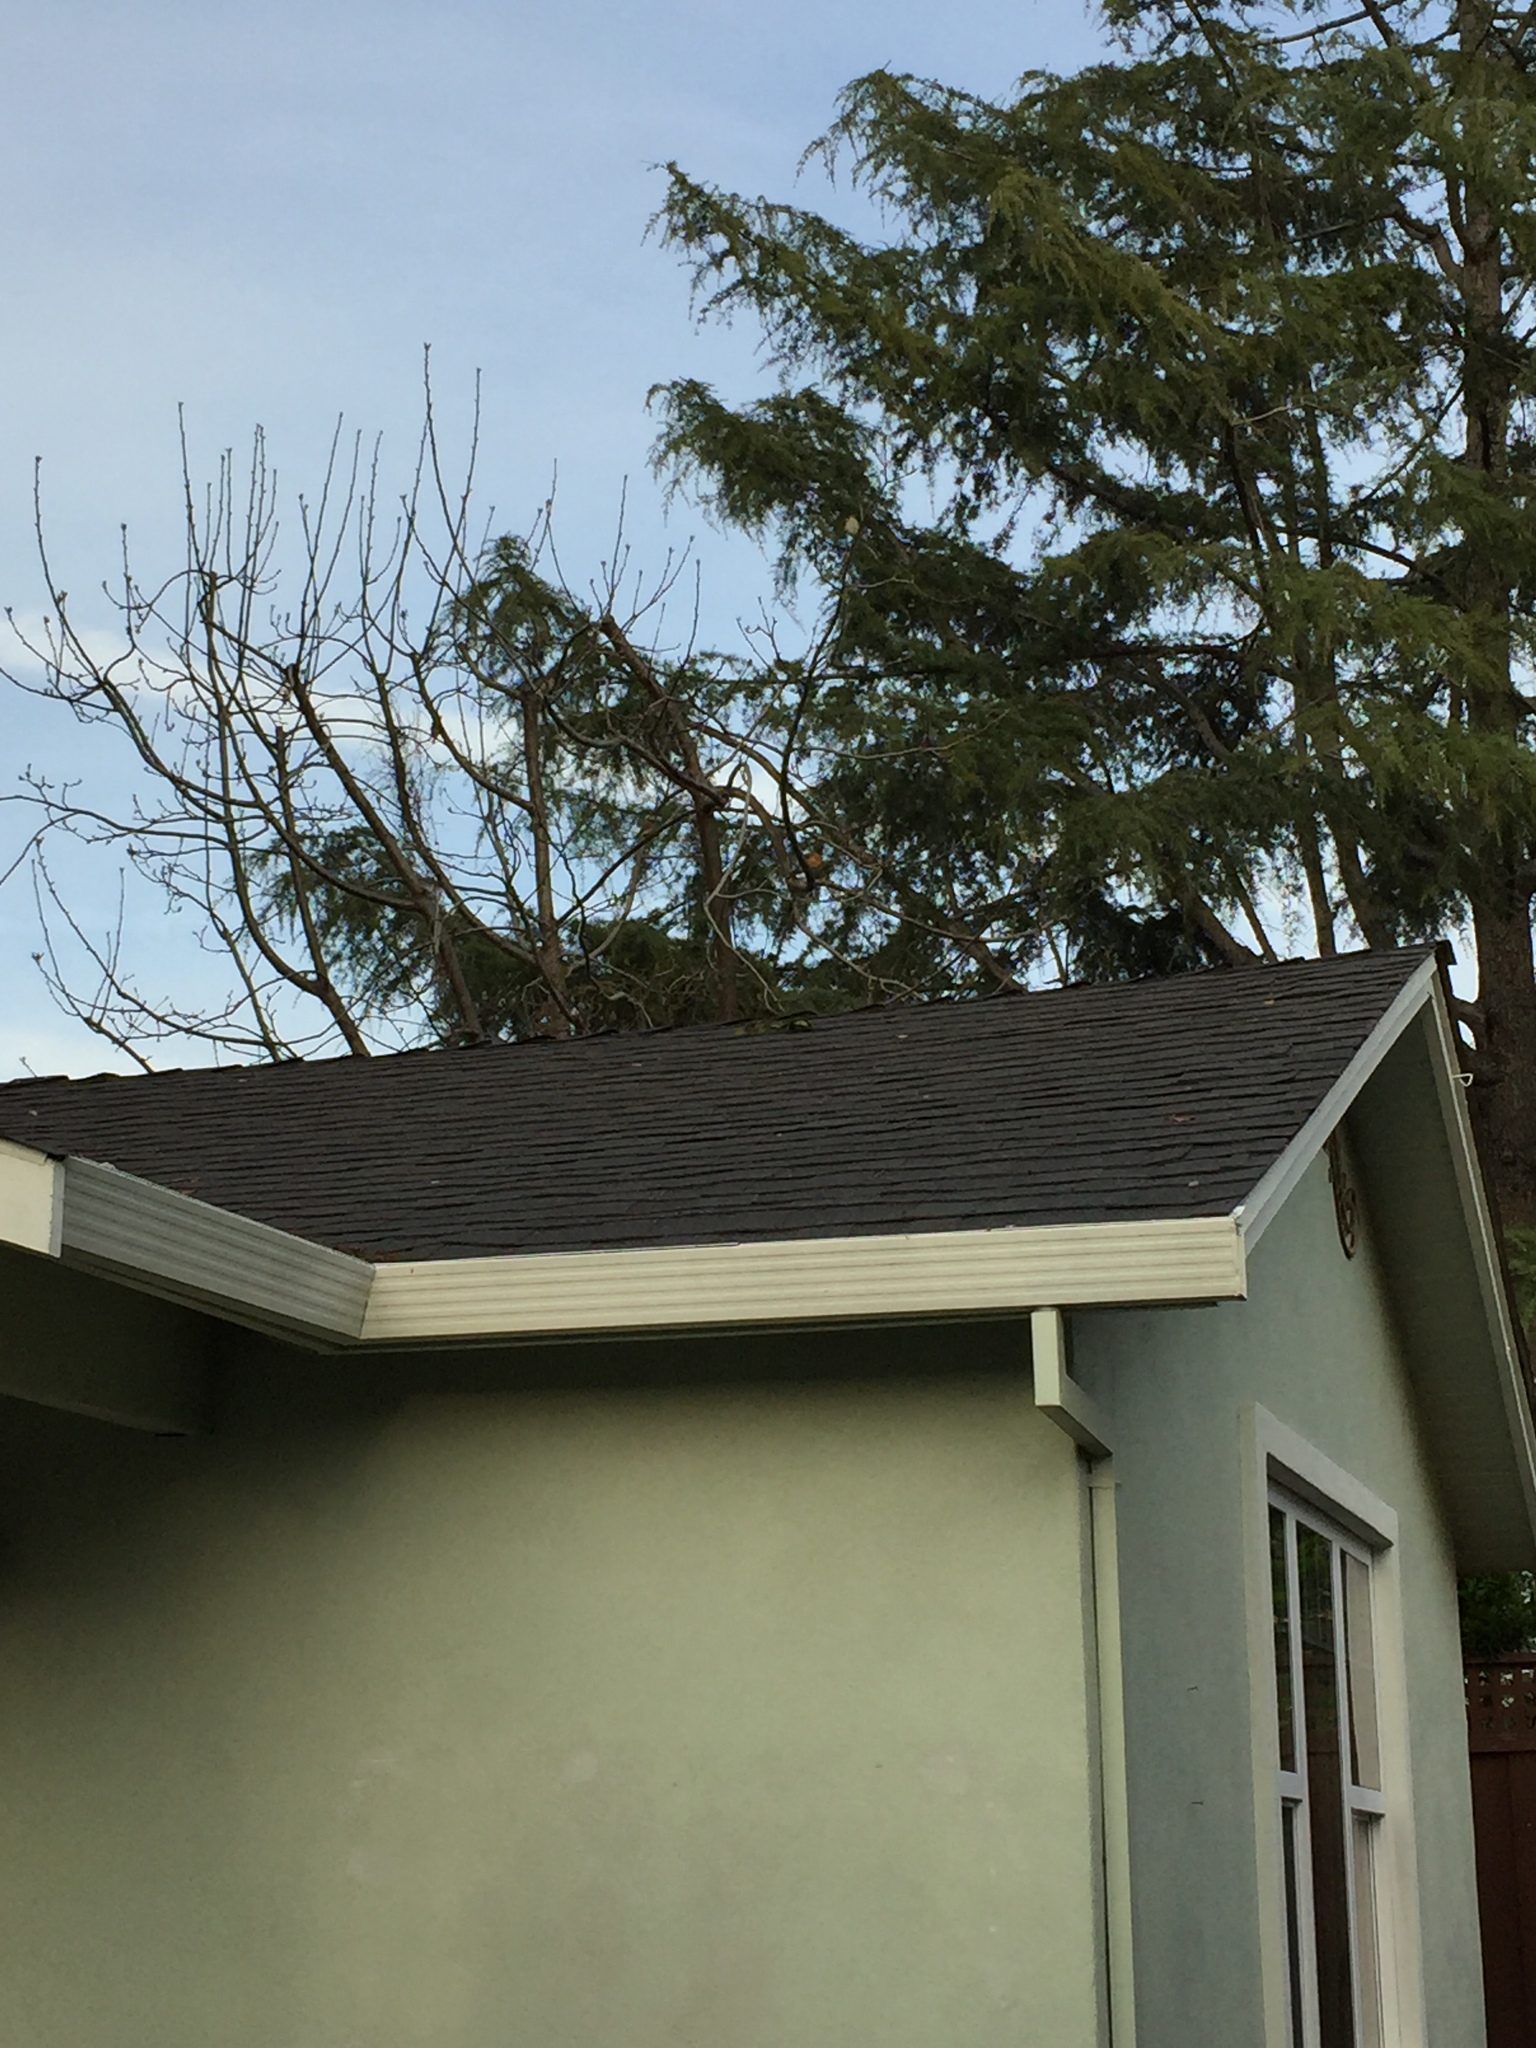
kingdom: Animalia
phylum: Chordata
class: Aves
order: Passeriformes
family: Turdidae
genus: Turdus
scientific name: Turdus migratorius
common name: American robin
